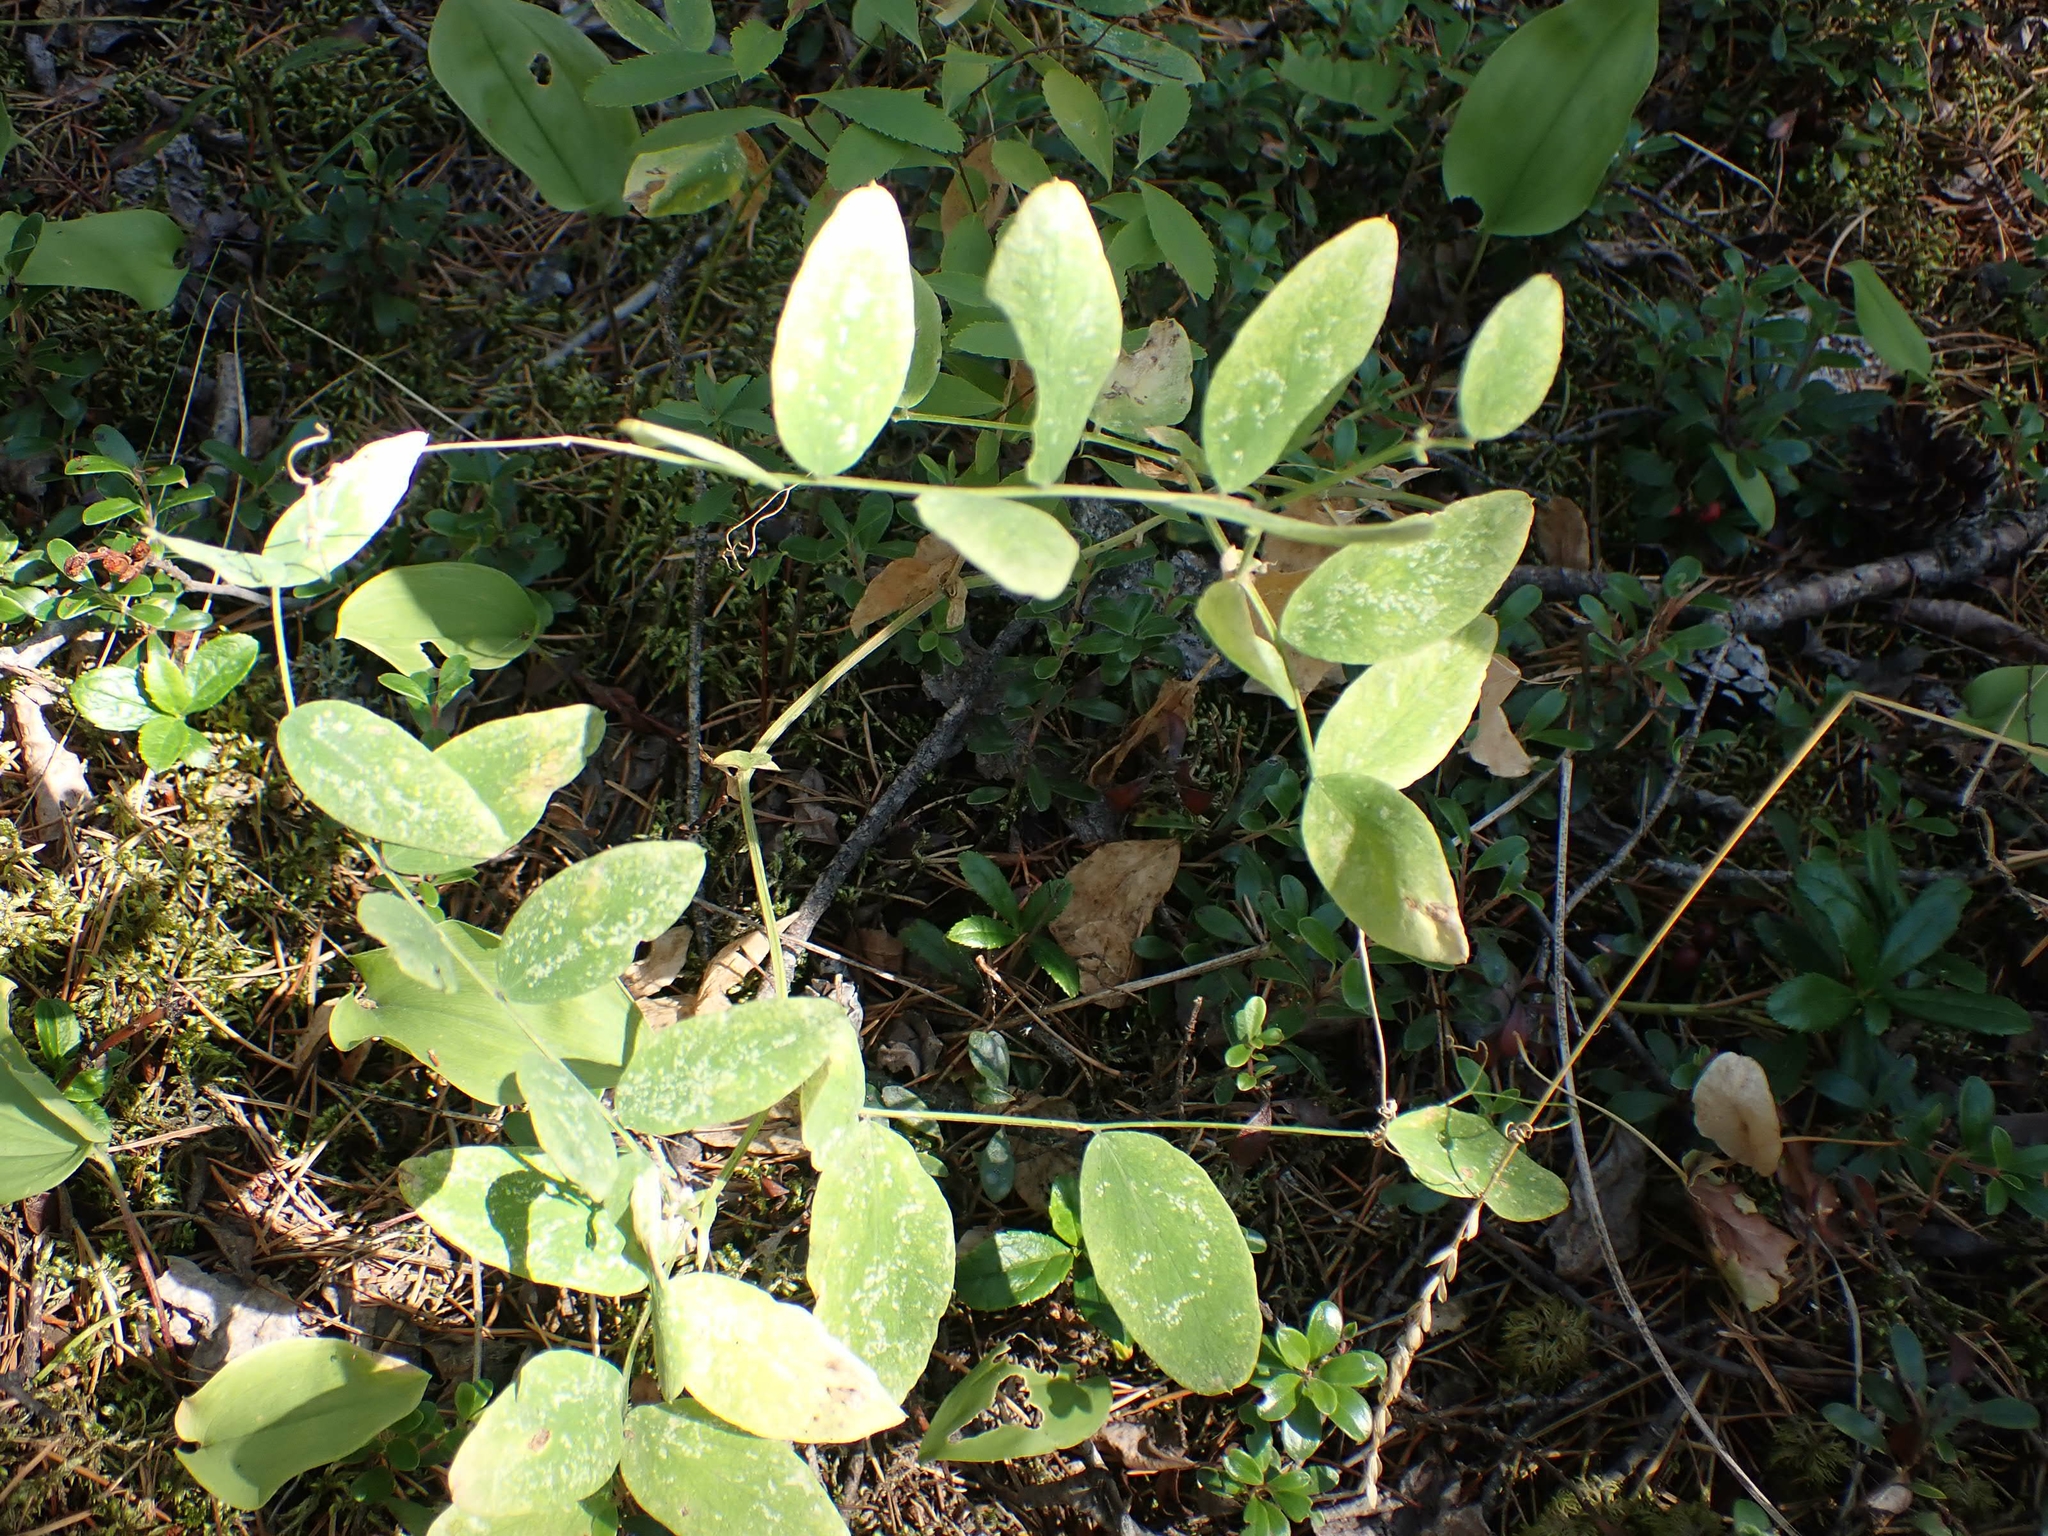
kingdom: Plantae
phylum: Tracheophyta
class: Magnoliopsida
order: Fabales
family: Fabaceae
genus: Lathyrus
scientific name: Lathyrus ochroleucus
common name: Pale vetchling
